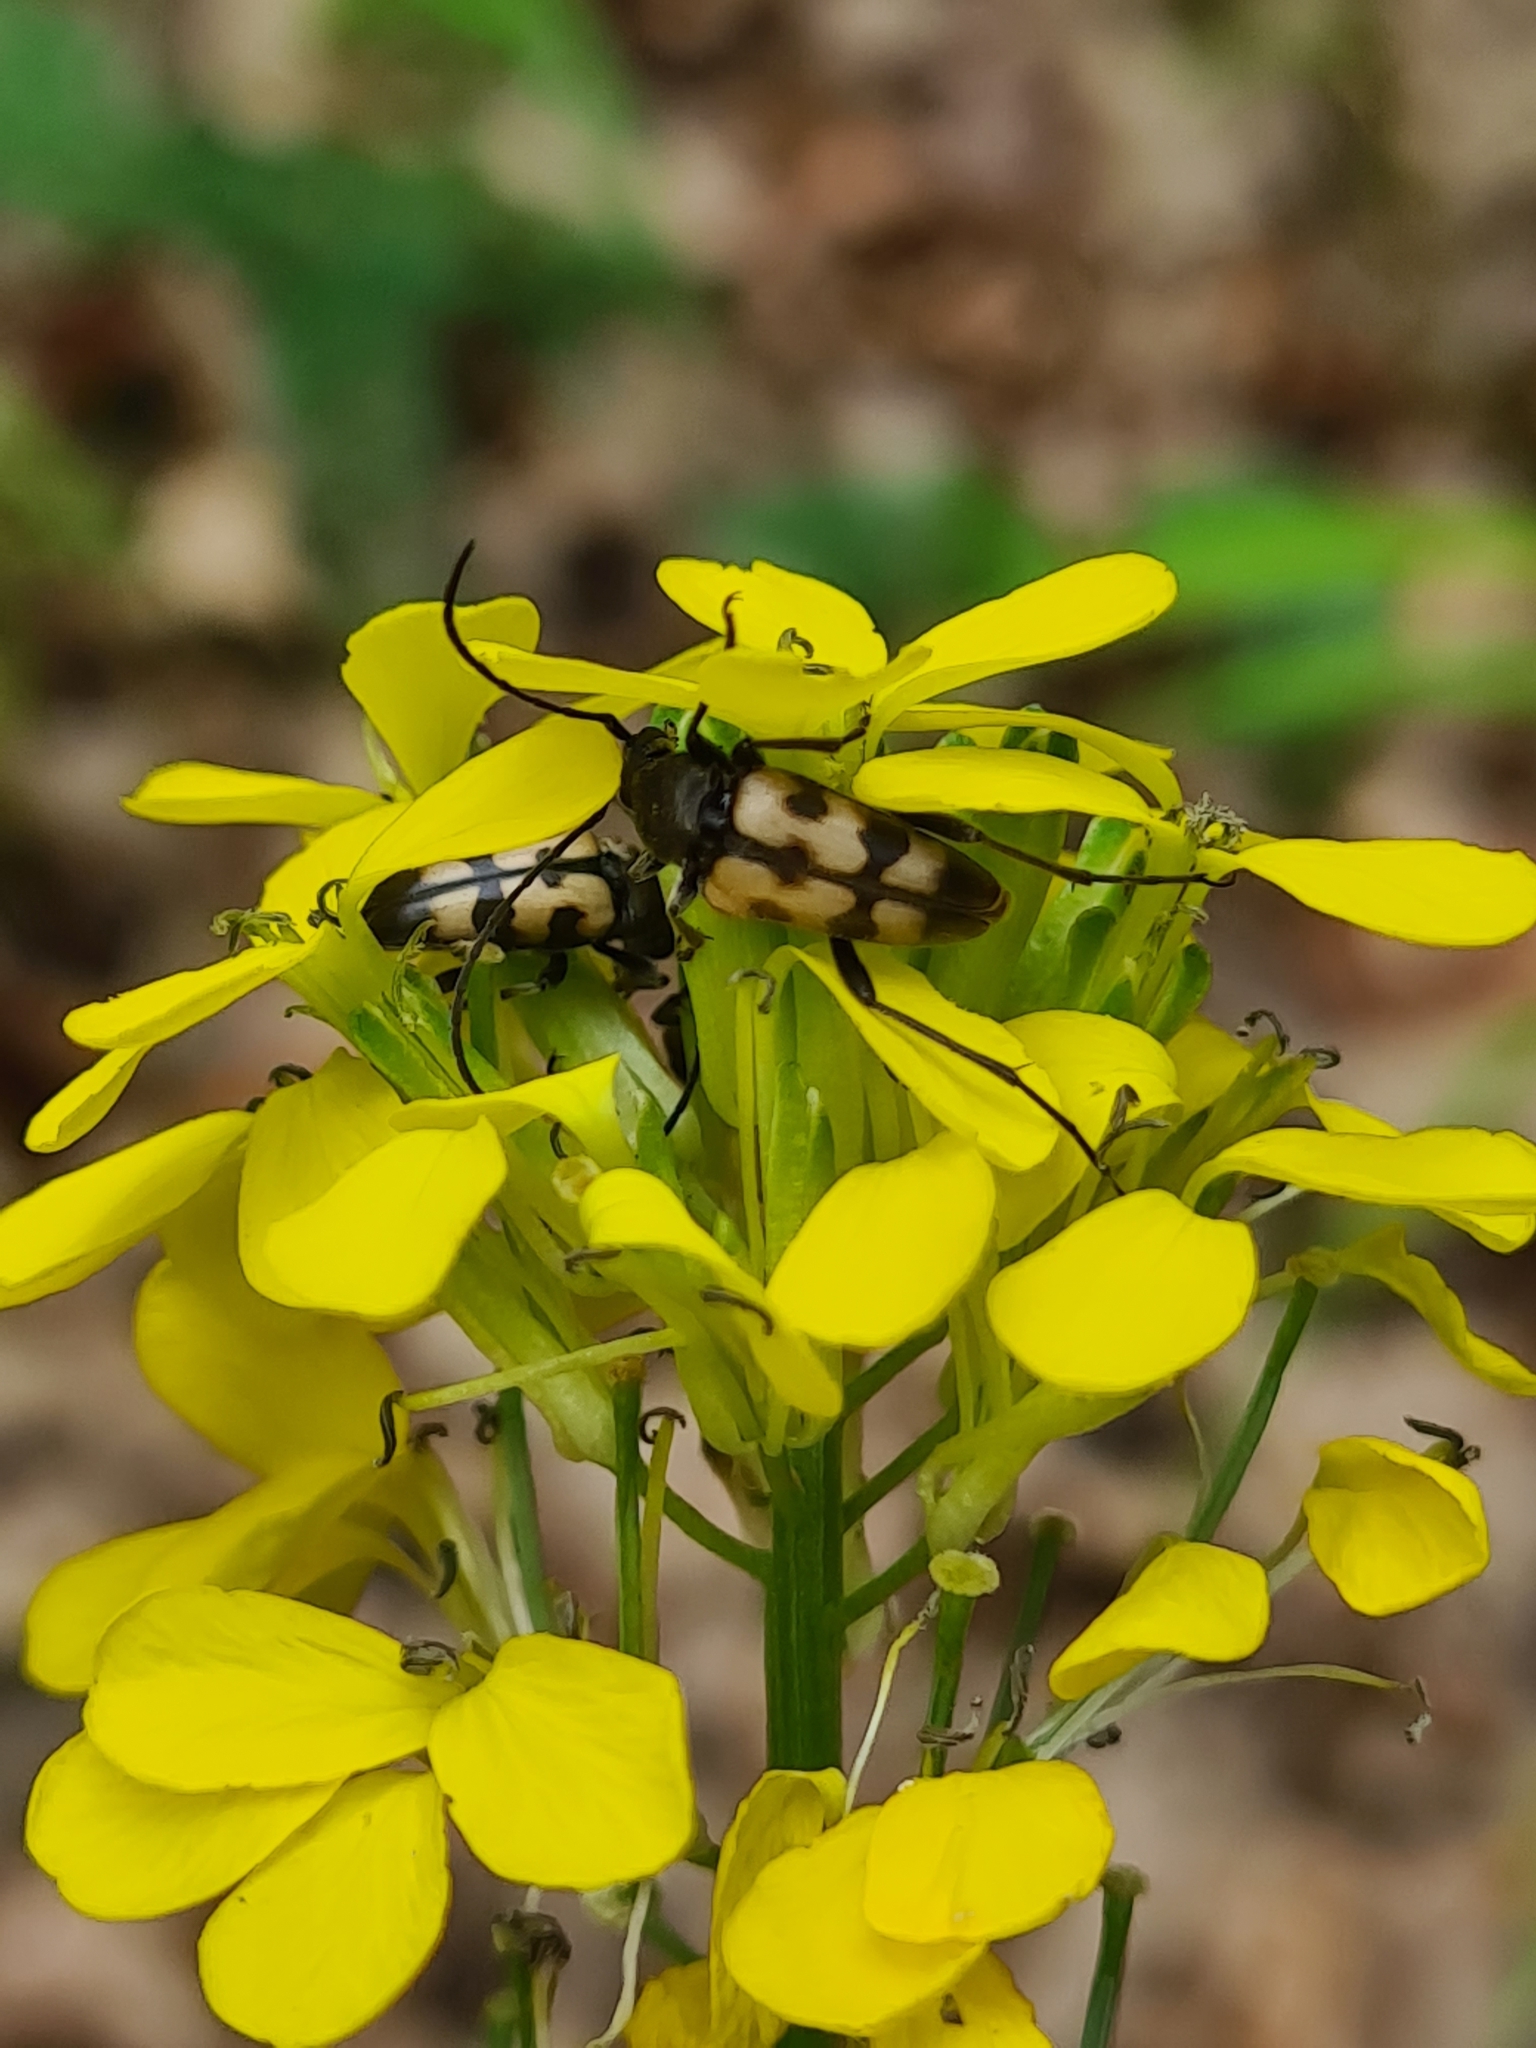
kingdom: Animalia
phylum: Arthropoda
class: Insecta
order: Coleoptera
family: Cerambycidae
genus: Pachytodes
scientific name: Pachytodes
